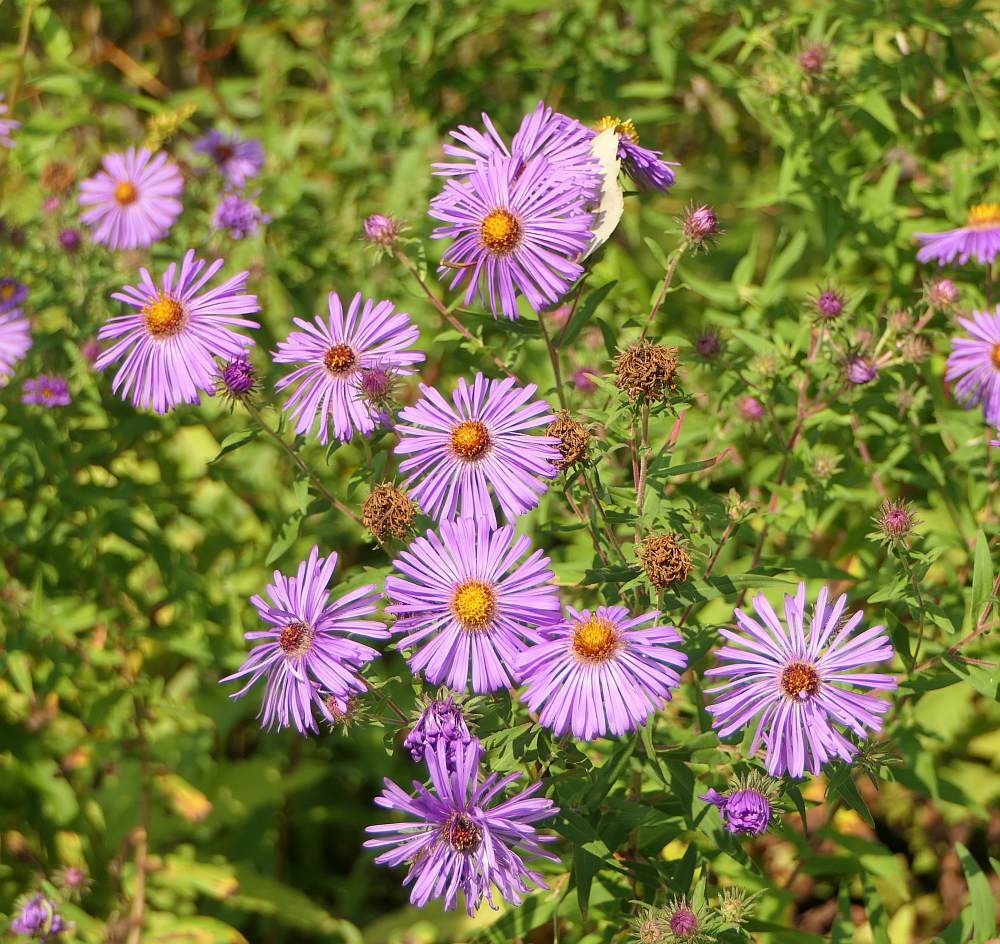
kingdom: Plantae
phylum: Tracheophyta
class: Magnoliopsida
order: Asterales
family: Asteraceae
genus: Symphyotrichum
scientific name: Symphyotrichum novae-angliae
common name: Michaelmas daisy
